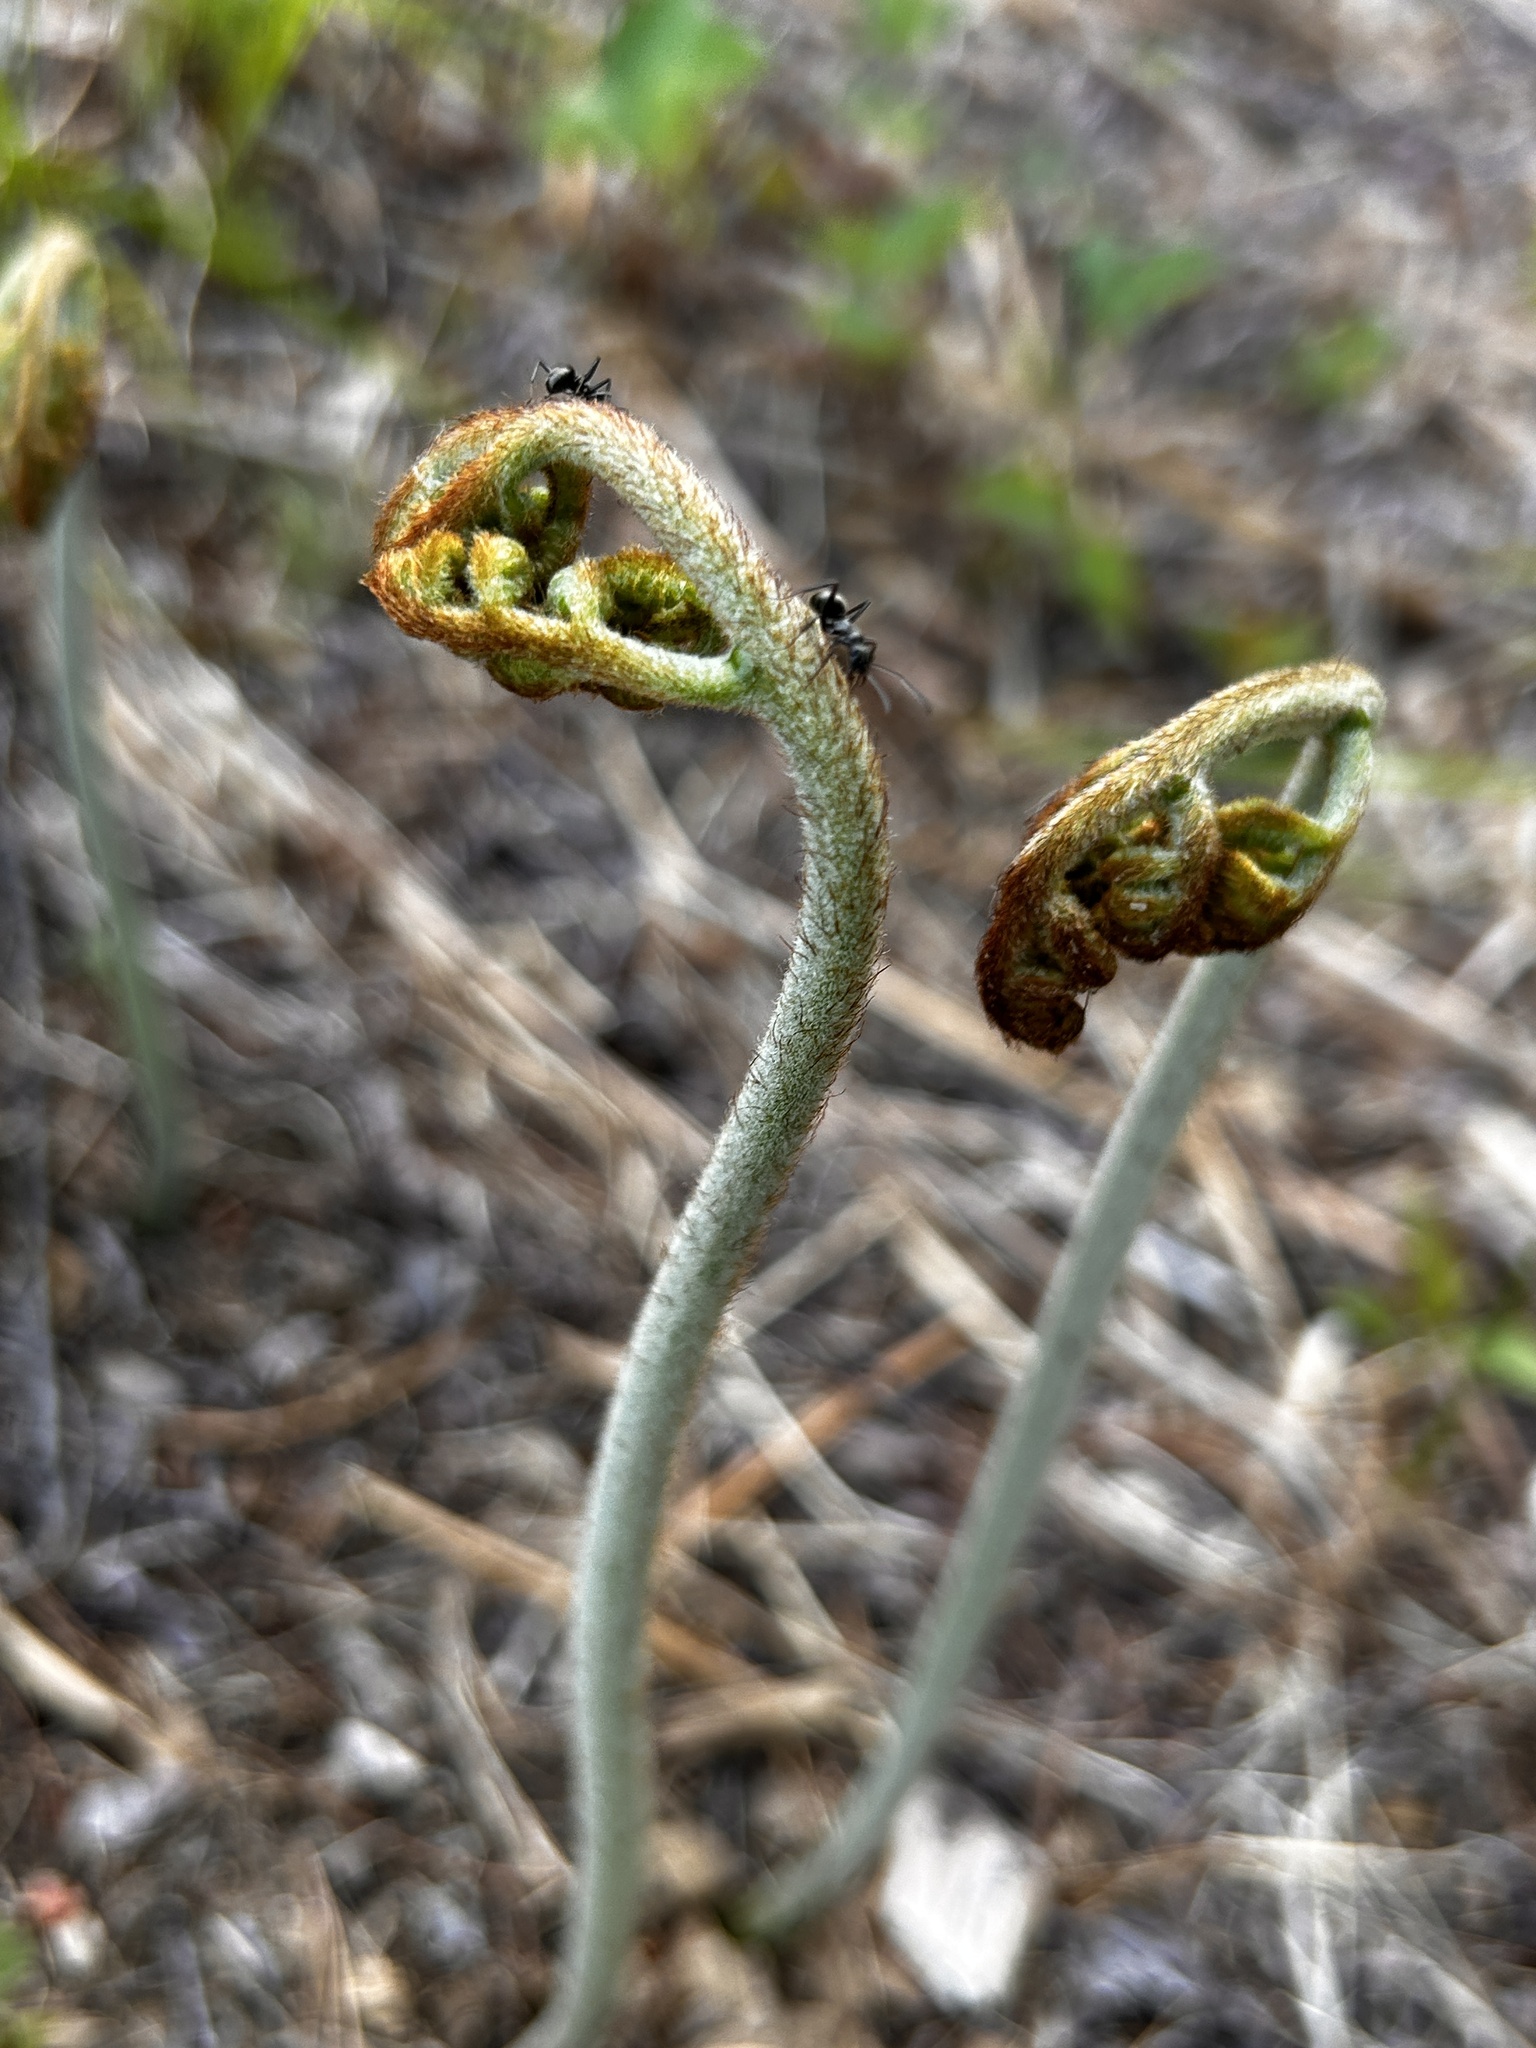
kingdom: Plantae
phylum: Tracheophyta
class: Polypodiopsida
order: Polypodiales
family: Dennstaedtiaceae
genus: Pteridium
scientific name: Pteridium aquilinum
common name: Bracken
